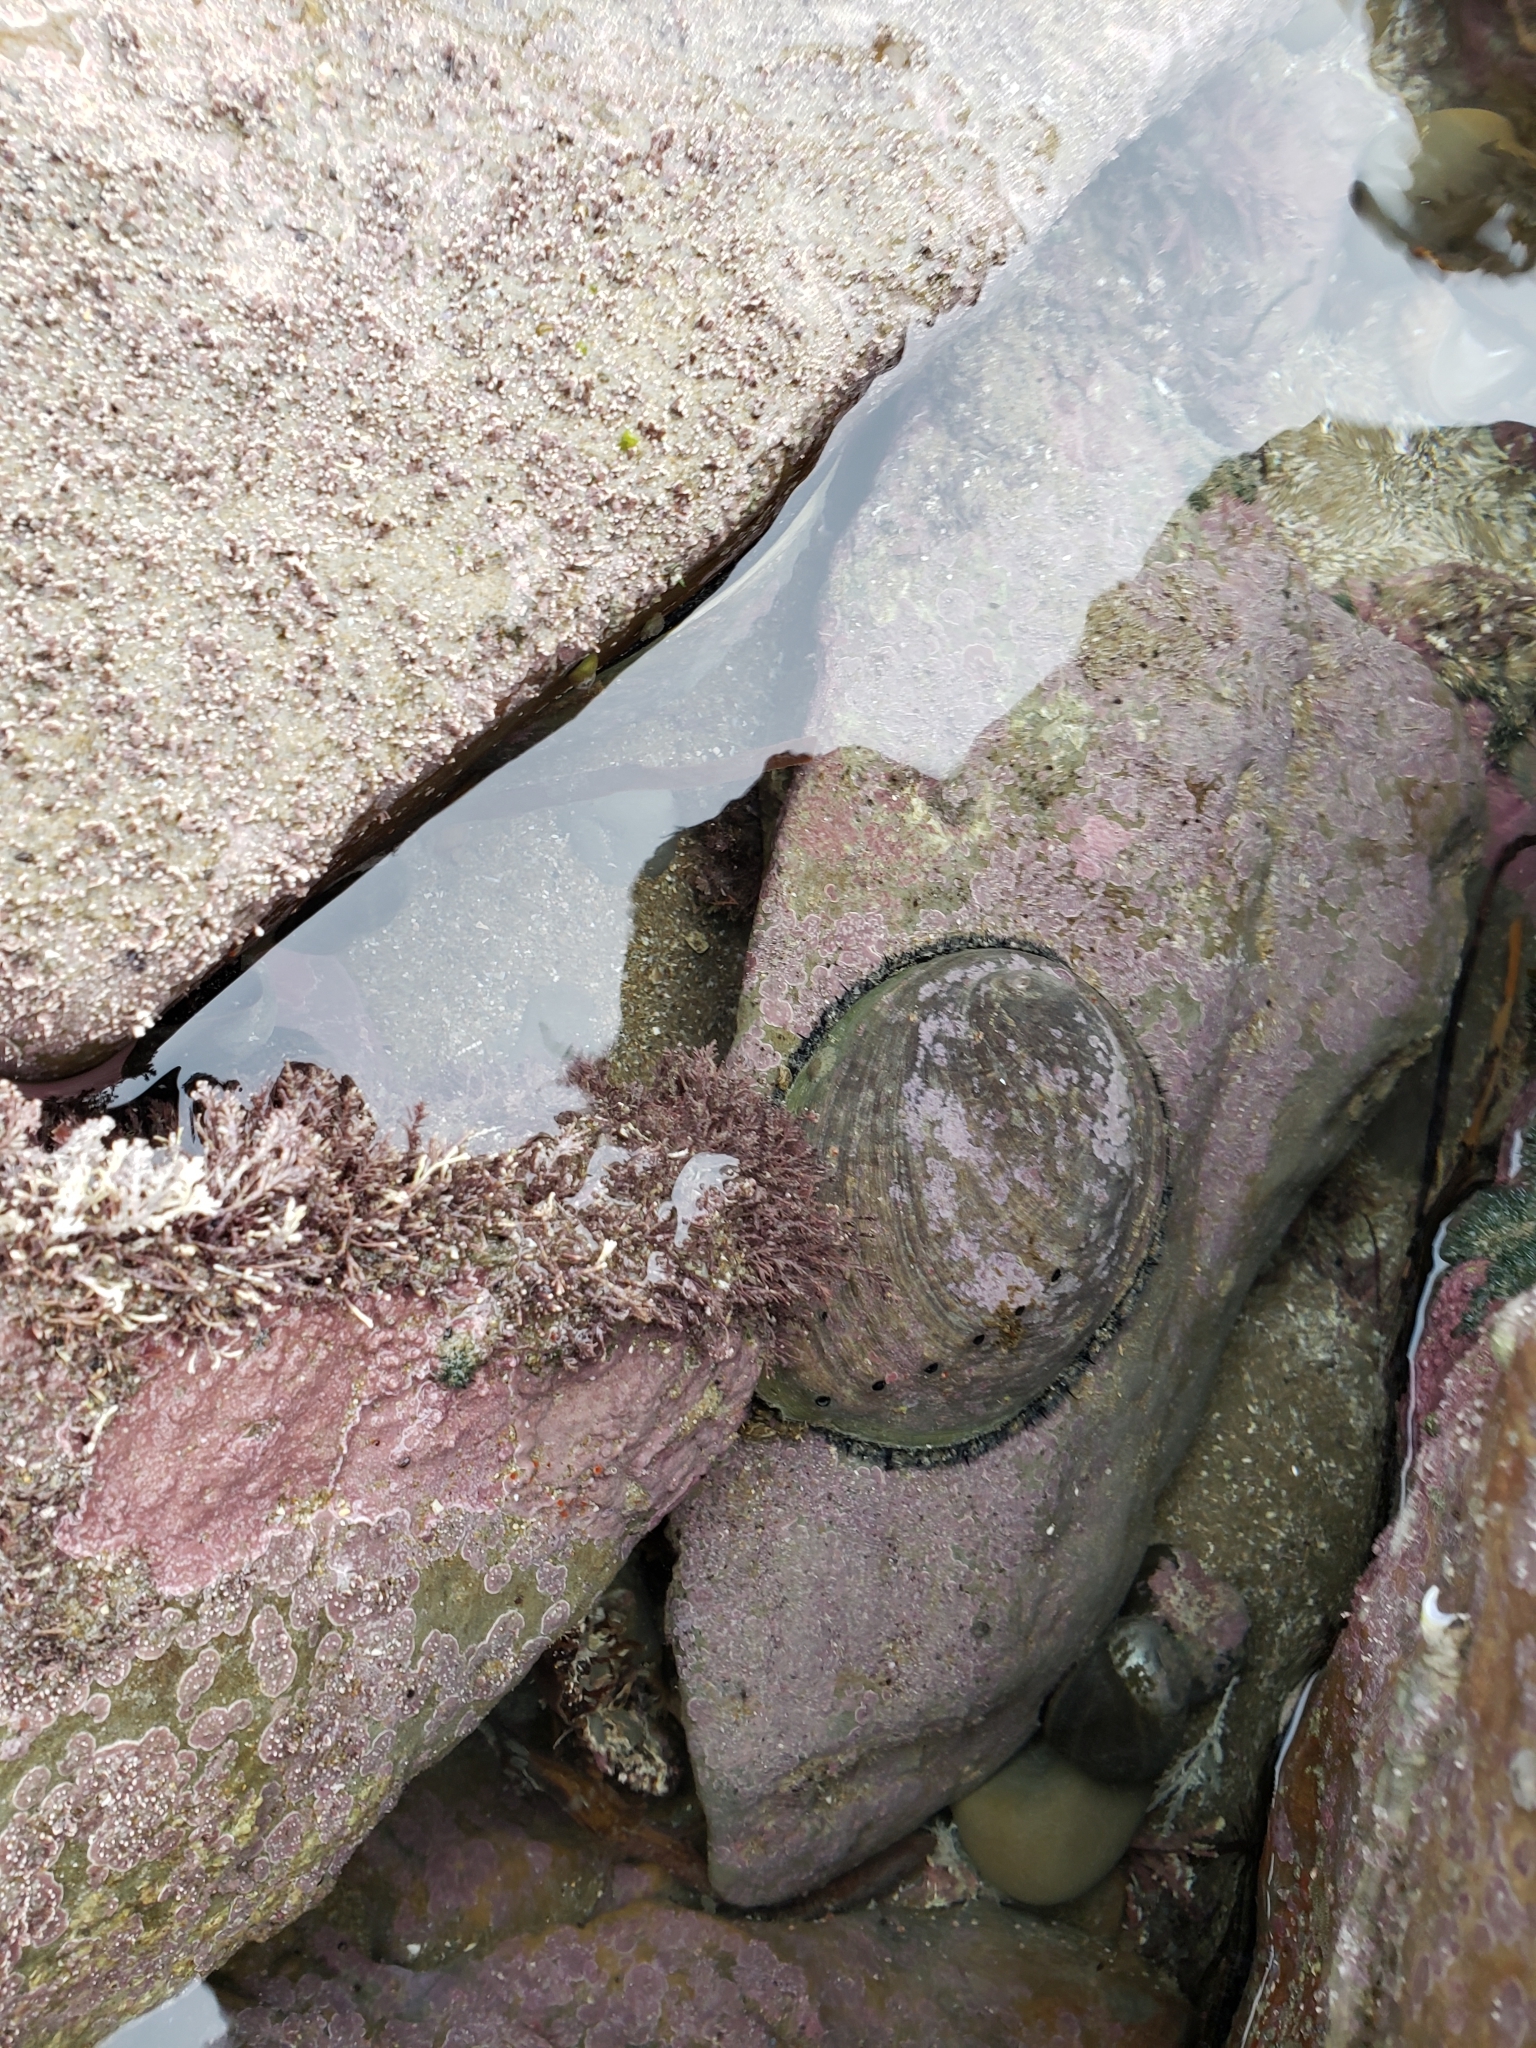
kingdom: Animalia
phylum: Mollusca
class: Gastropoda
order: Lepetellida
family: Haliotidae
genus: Haliotis
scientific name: Haliotis iris
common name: Abalone
